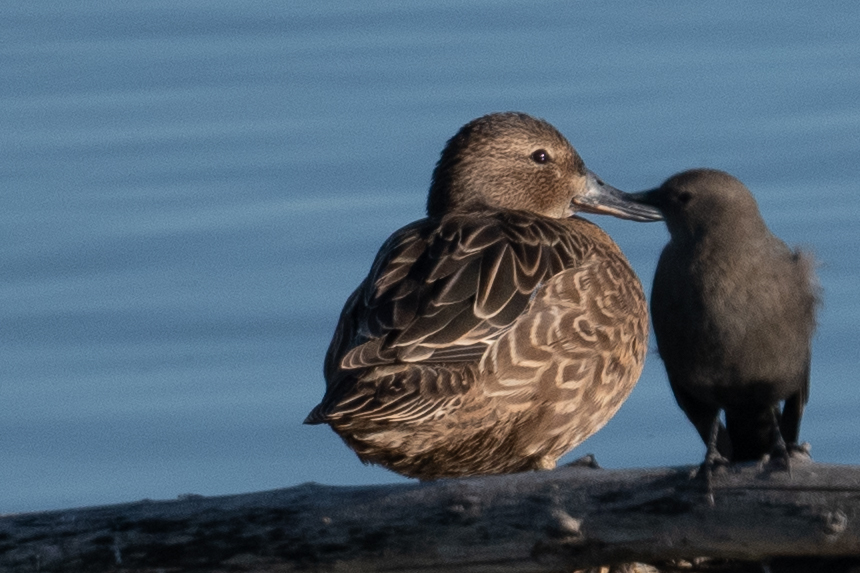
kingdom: Animalia
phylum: Chordata
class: Aves
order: Anseriformes
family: Anatidae
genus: Spatula
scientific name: Spatula cyanoptera
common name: Cinnamon teal
